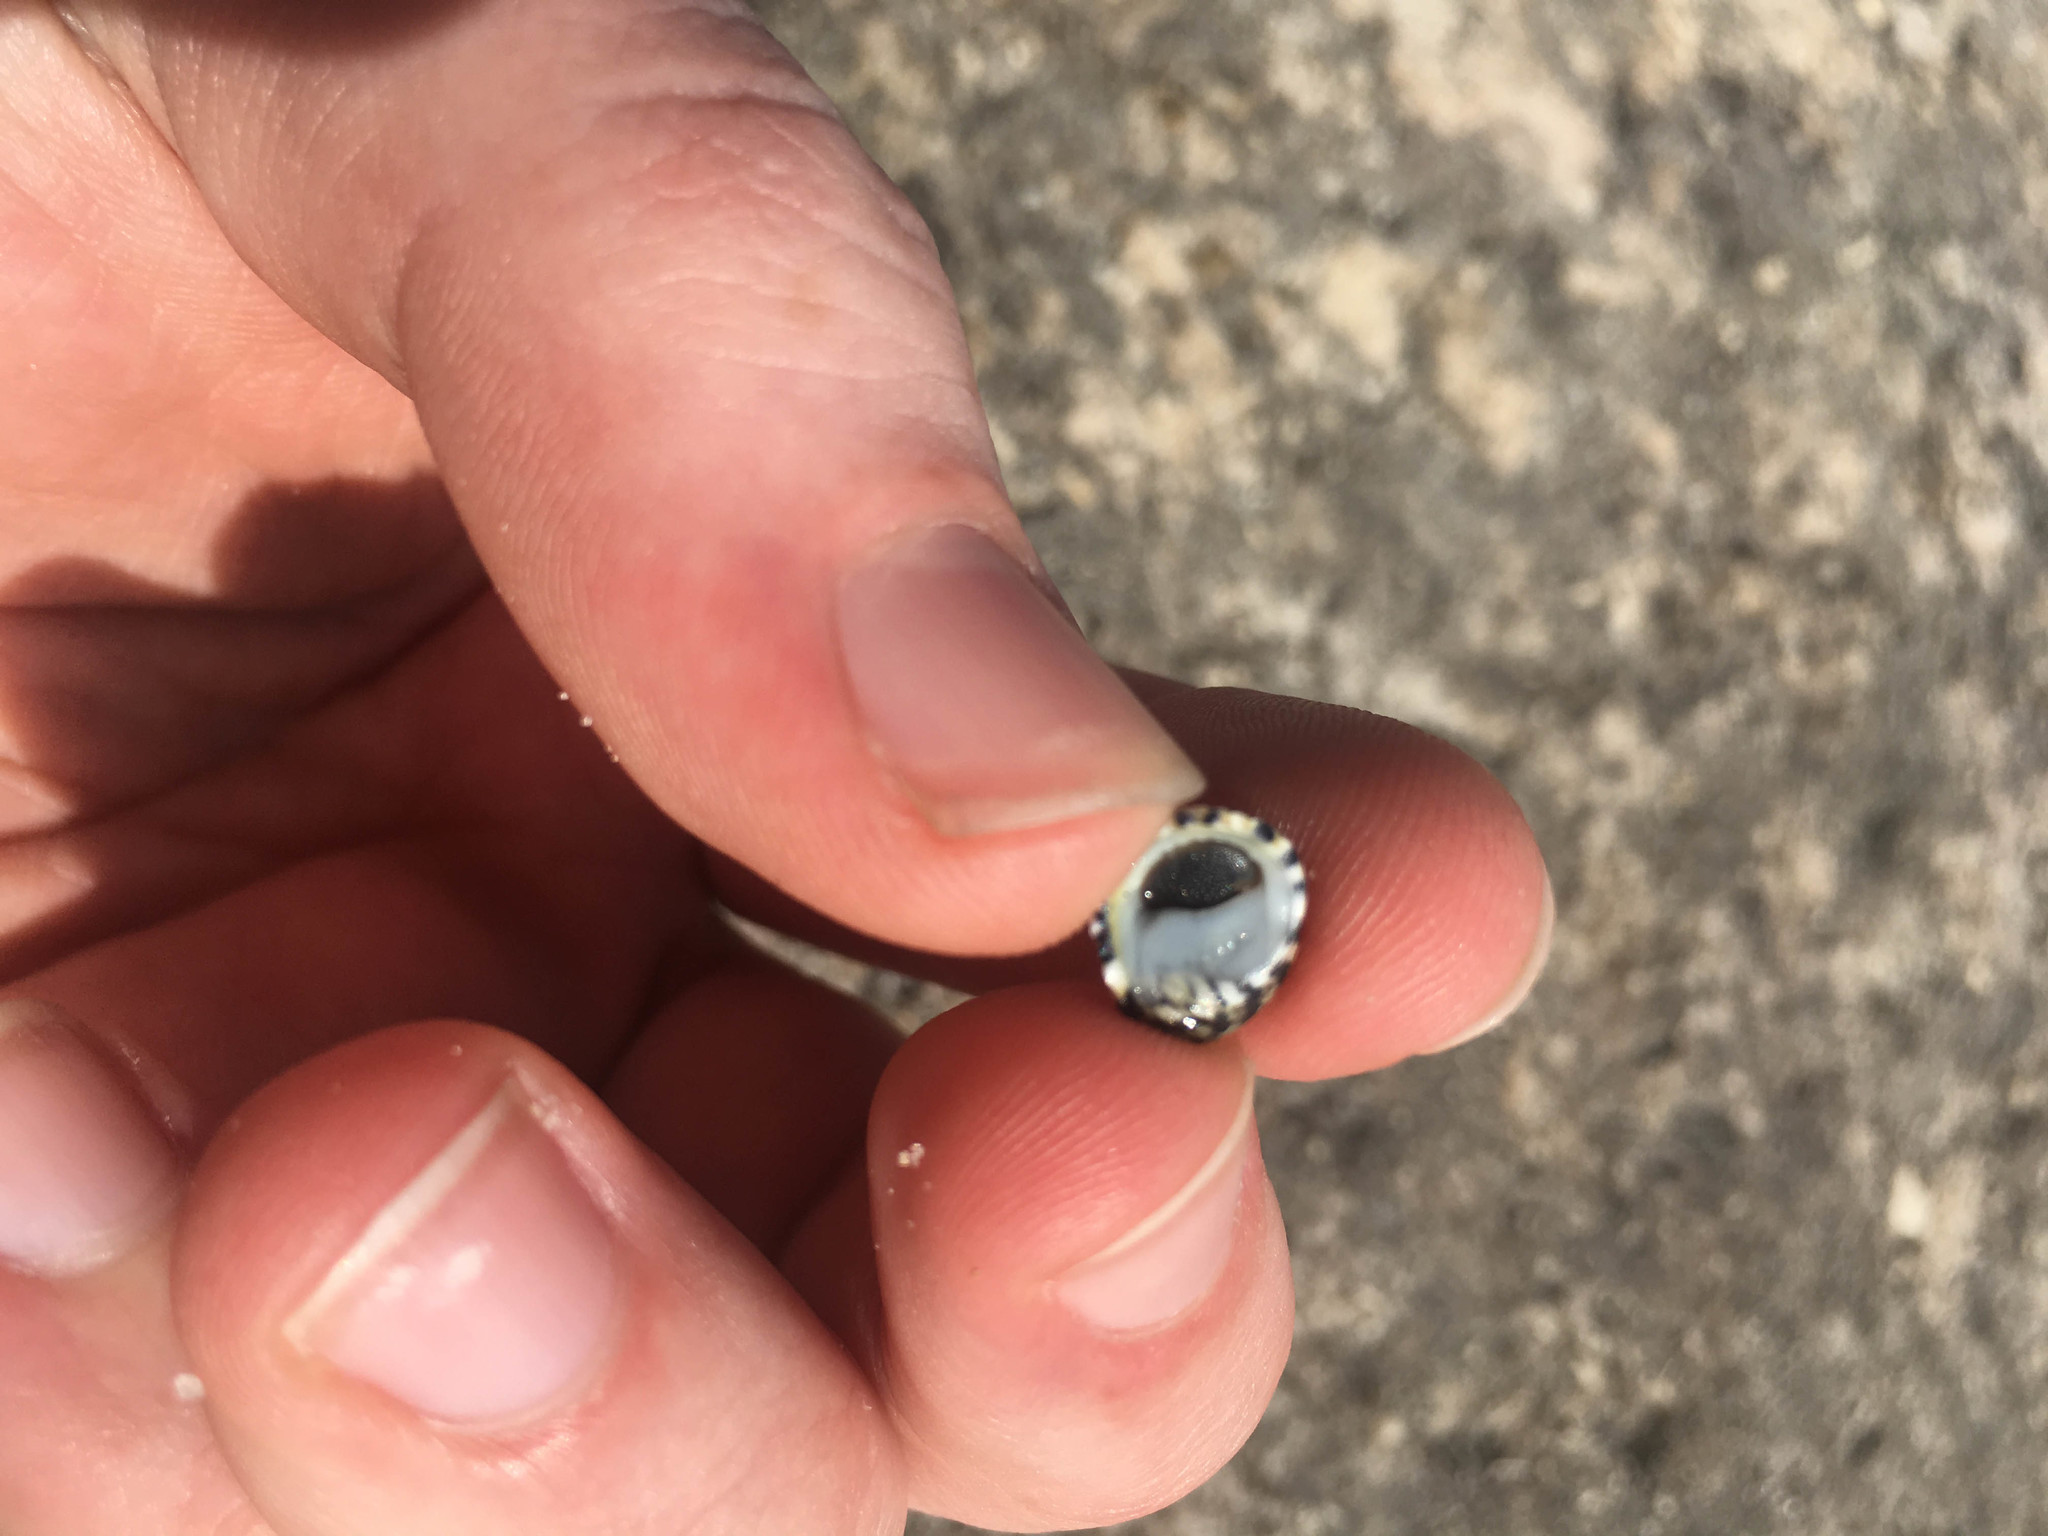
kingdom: Animalia
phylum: Mollusca
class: Gastropoda
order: Cycloneritida
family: Neritidae
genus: Nerita
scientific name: Nerita tessellata
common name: Checkered nerite
